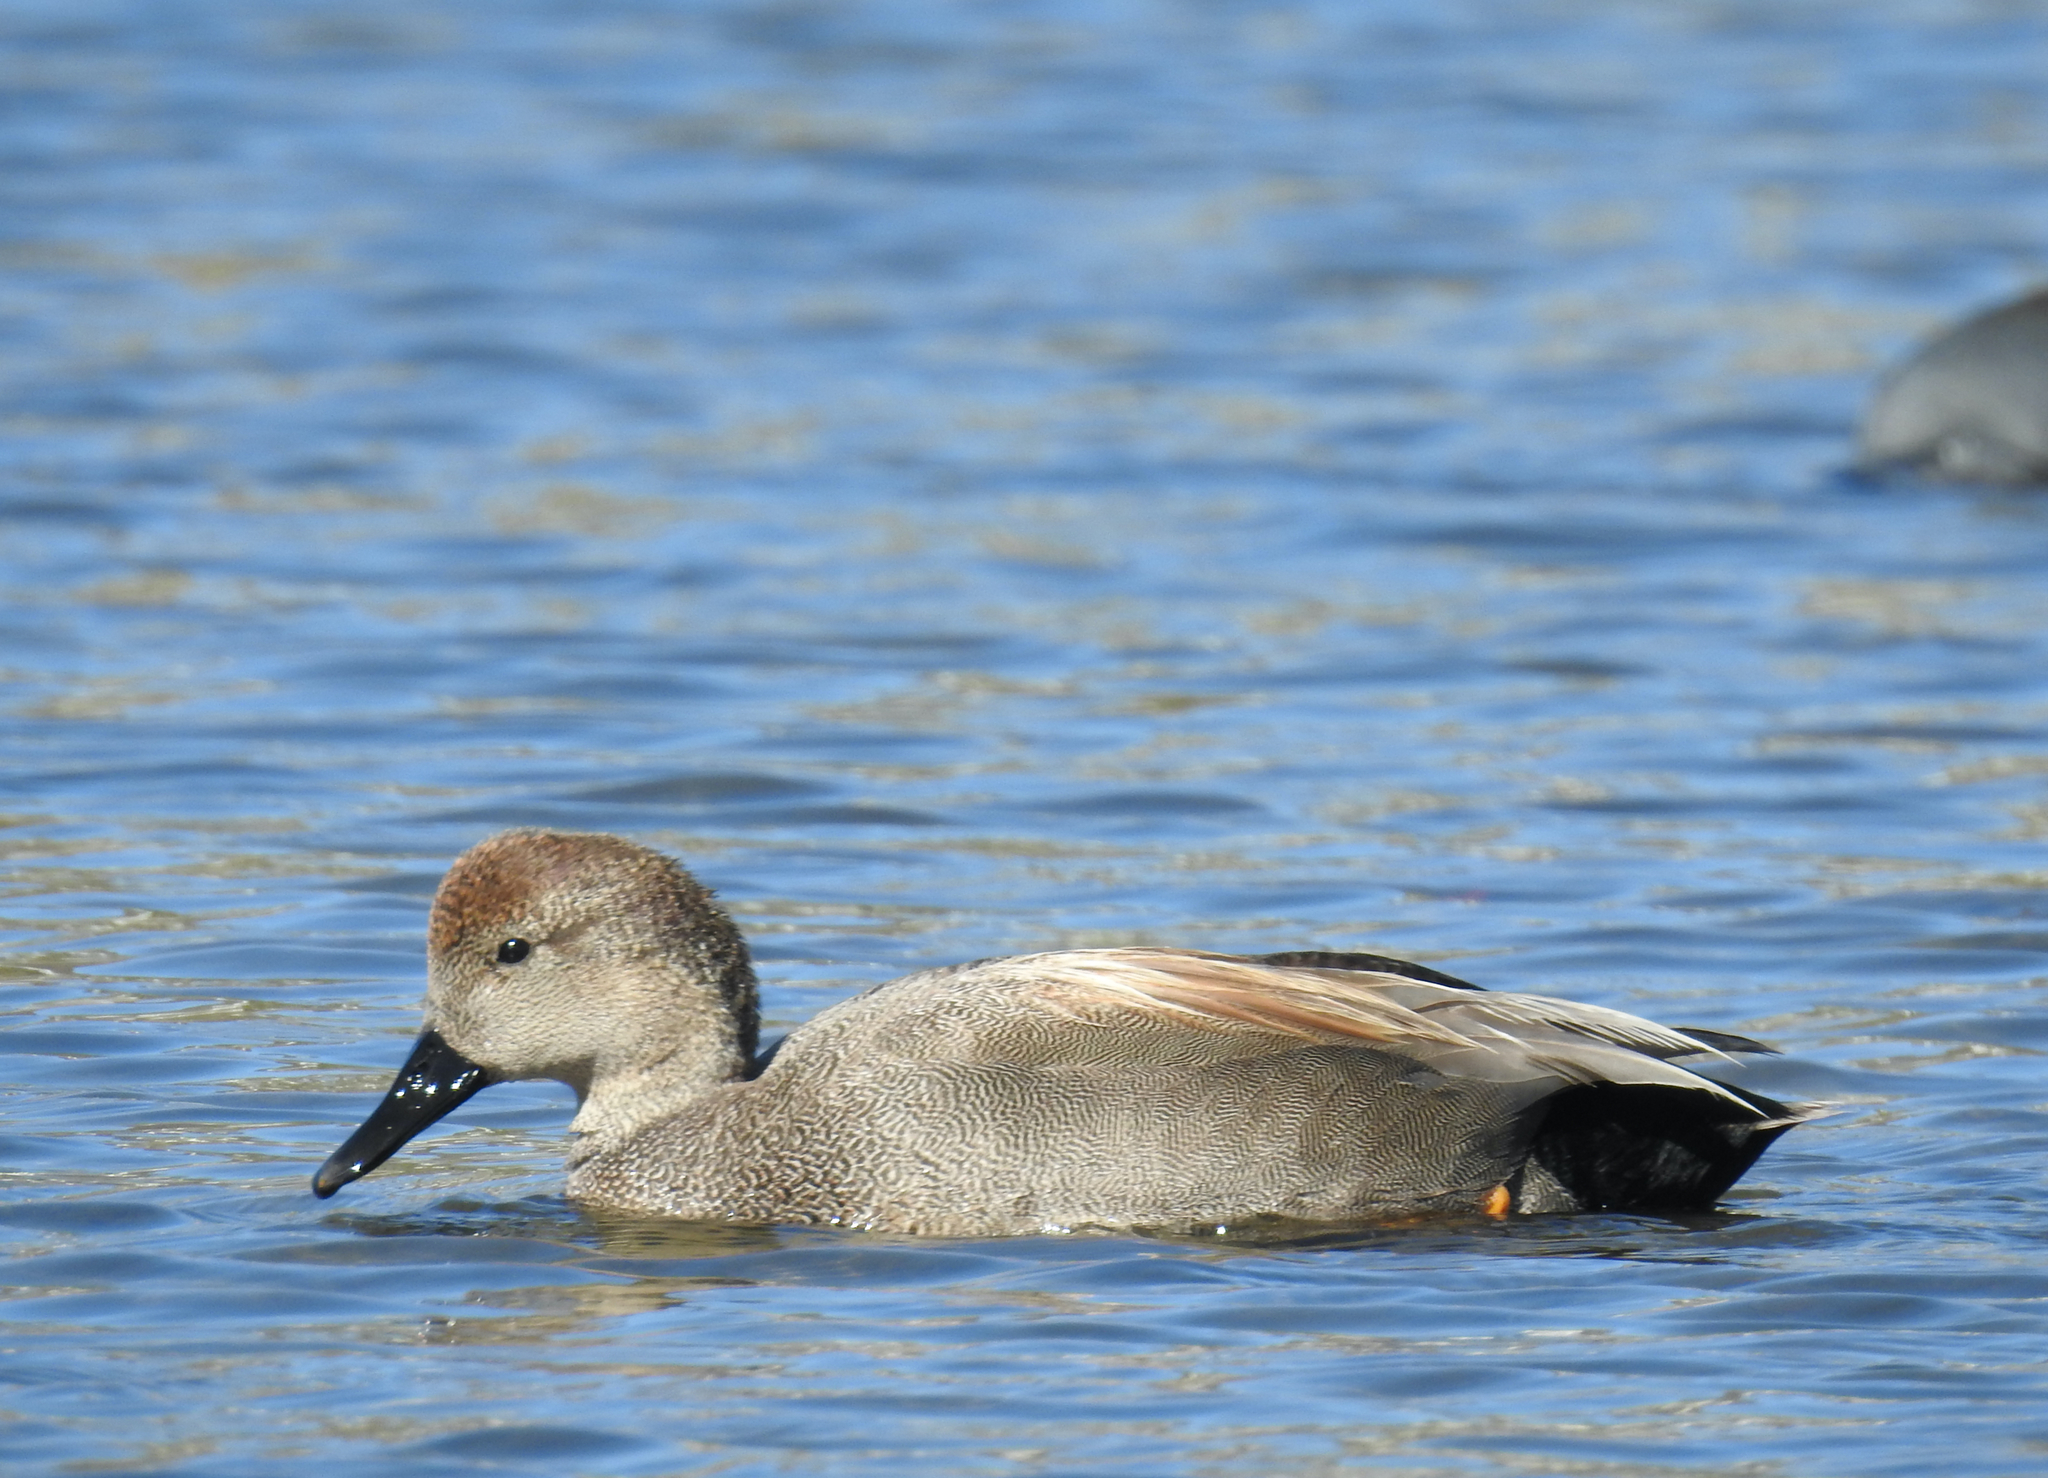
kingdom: Animalia
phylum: Chordata
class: Aves
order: Anseriformes
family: Anatidae
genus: Mareca
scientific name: Mareca strepera
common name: Gadwall
